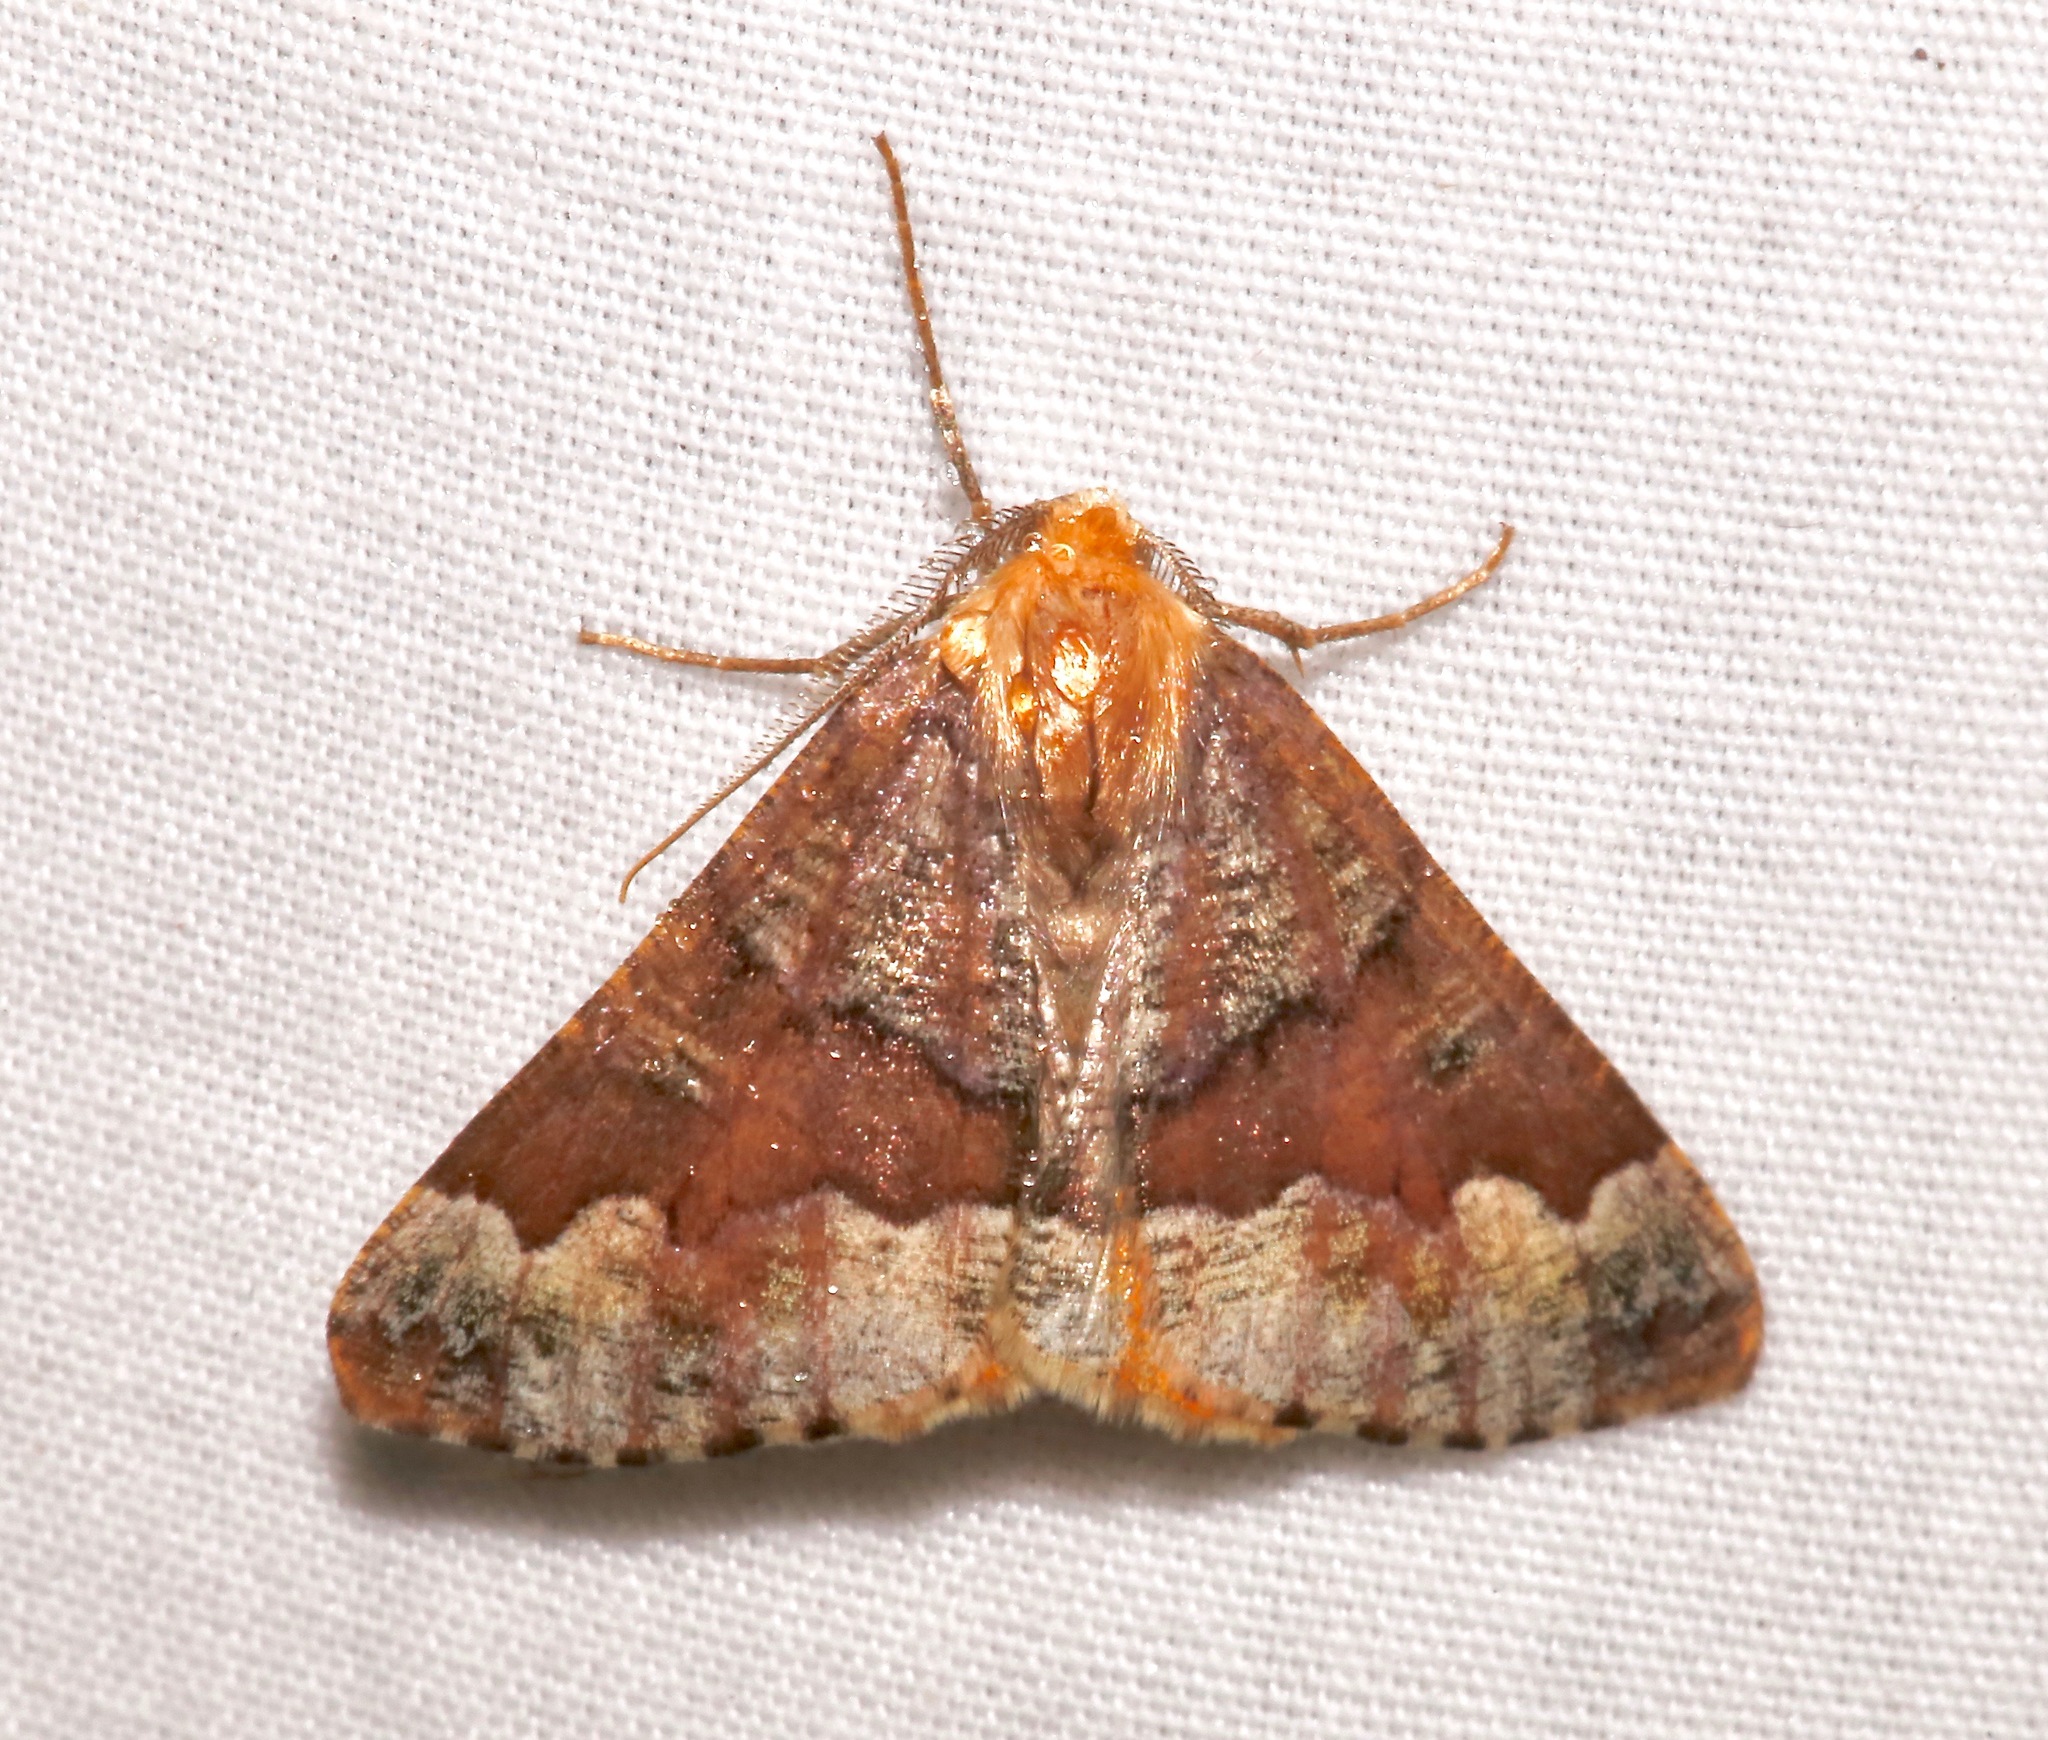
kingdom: Animalia
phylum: Arthropoda
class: Insecta
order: Lepidoptera
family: Geometridae
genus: Caripeta
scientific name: Caripeta pulcherrima
